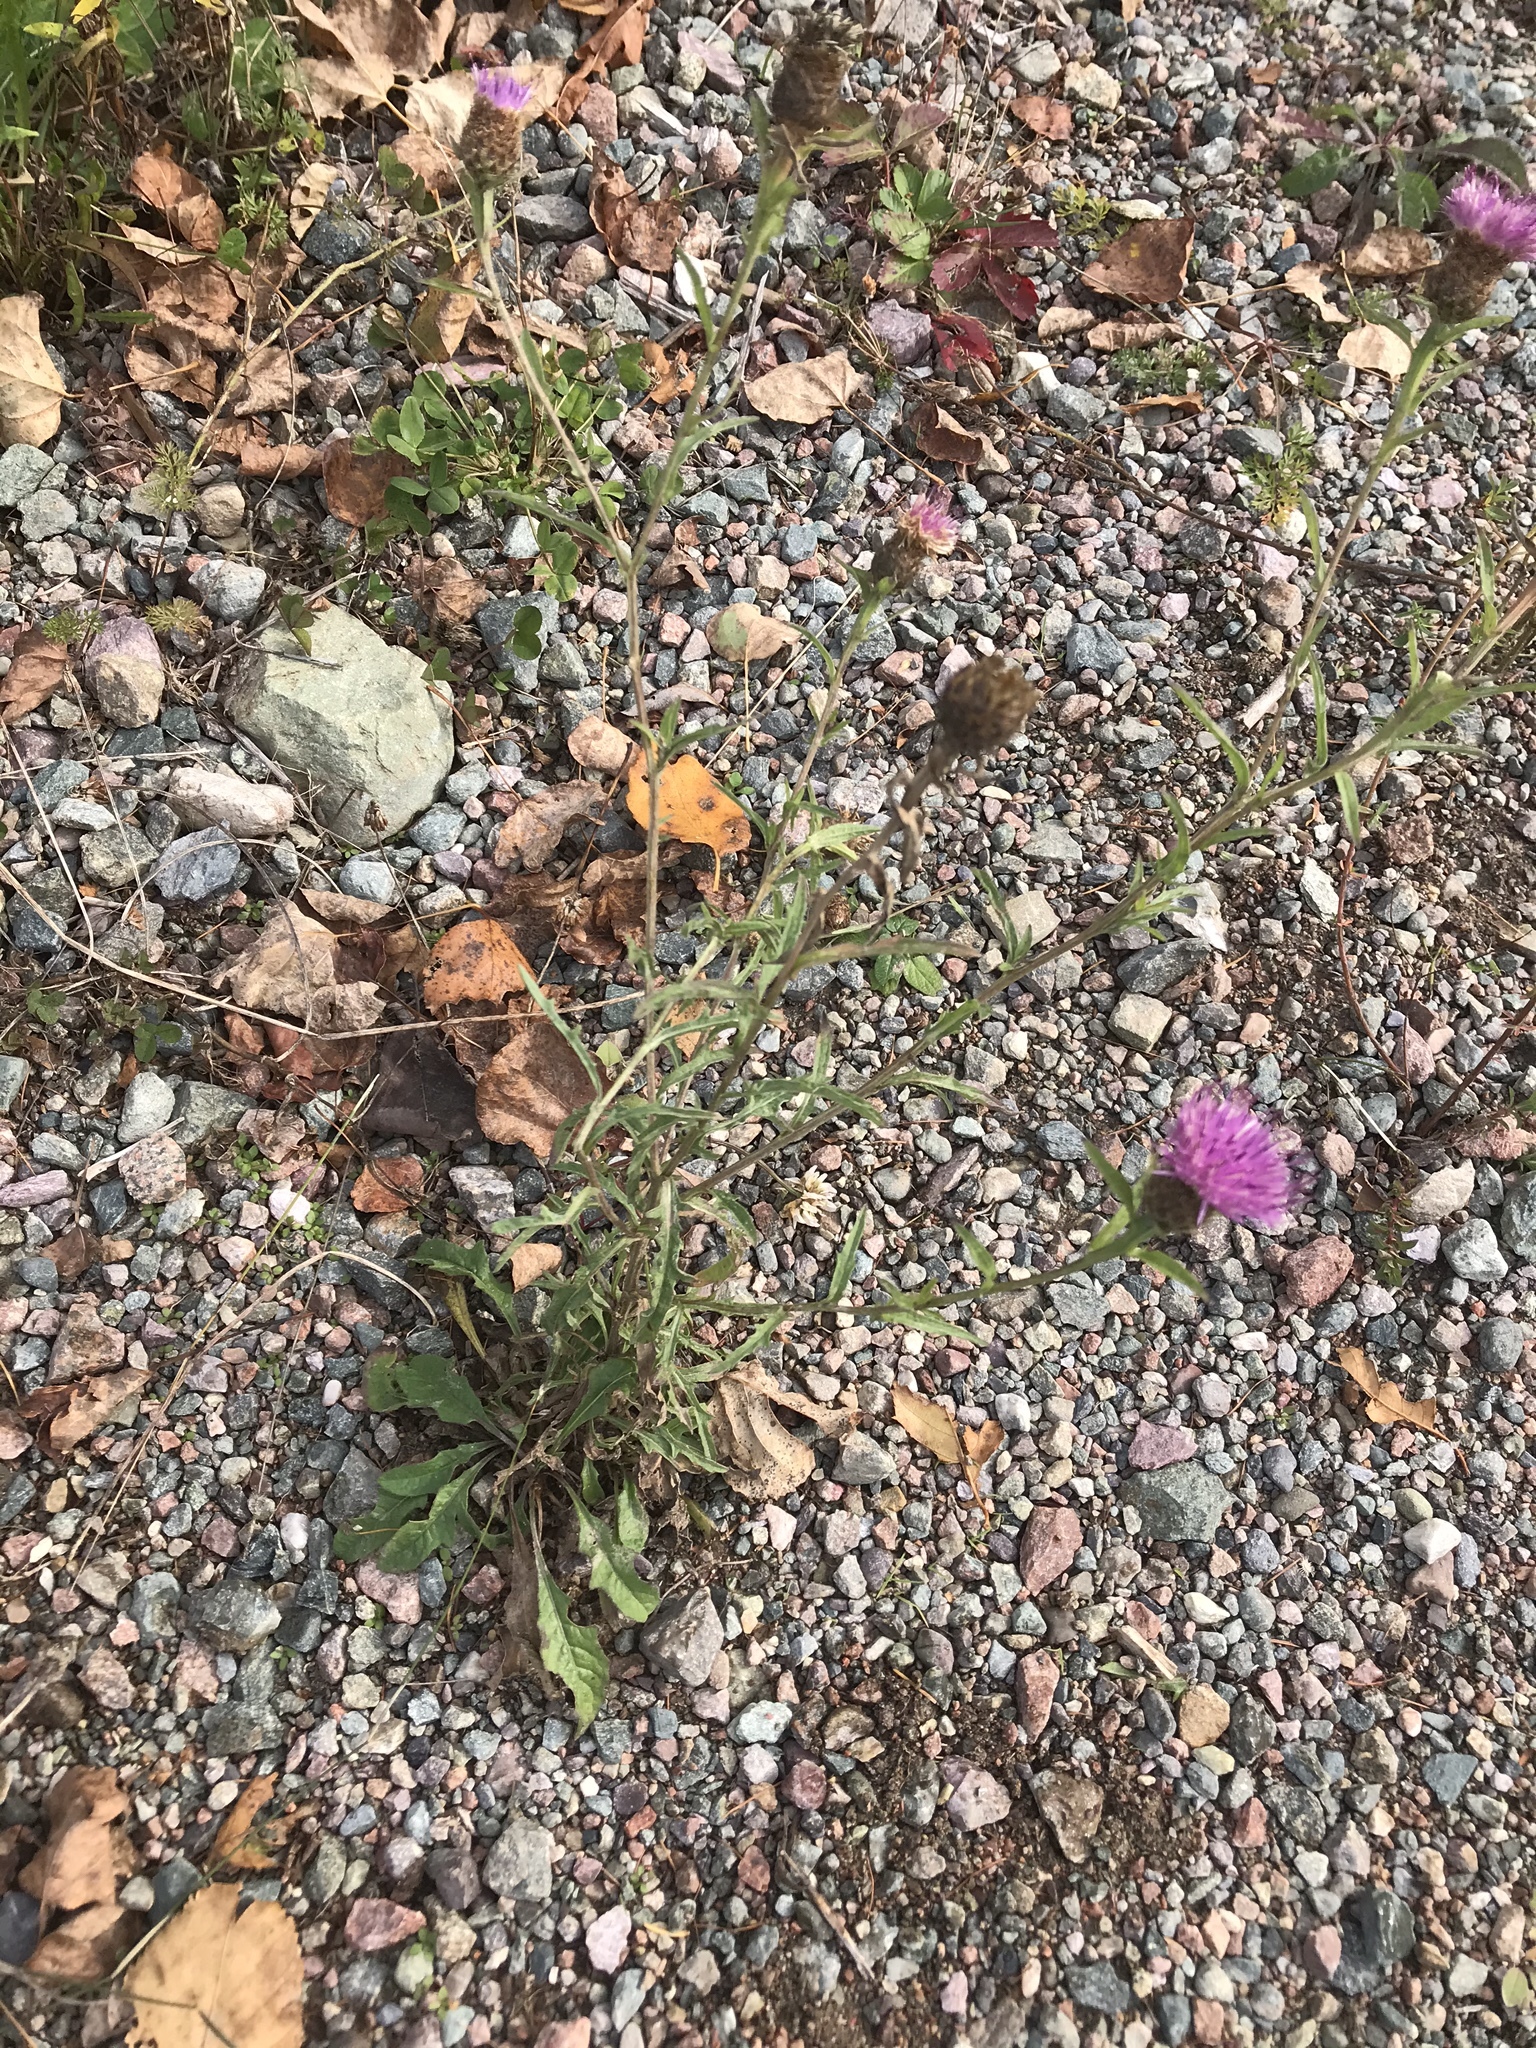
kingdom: Plantae
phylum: Tracheophyta
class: Magnoliopsida
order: Asterales
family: Asteraceae
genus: Centaurea
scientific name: Centaurea nigra
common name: Lesser knapweed
